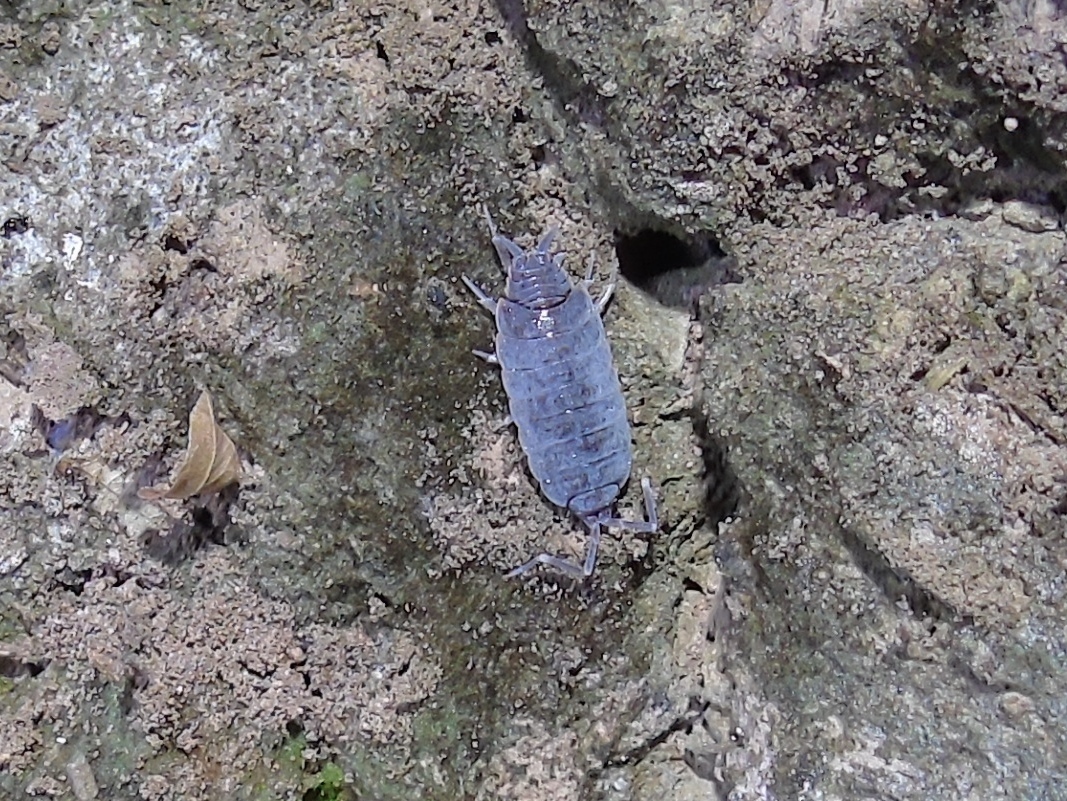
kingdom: Animalia
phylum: Arthropoda
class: Malacostraca
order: Isopoda
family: Porcellionidae
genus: Porcellionides
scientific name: Porcellionides
